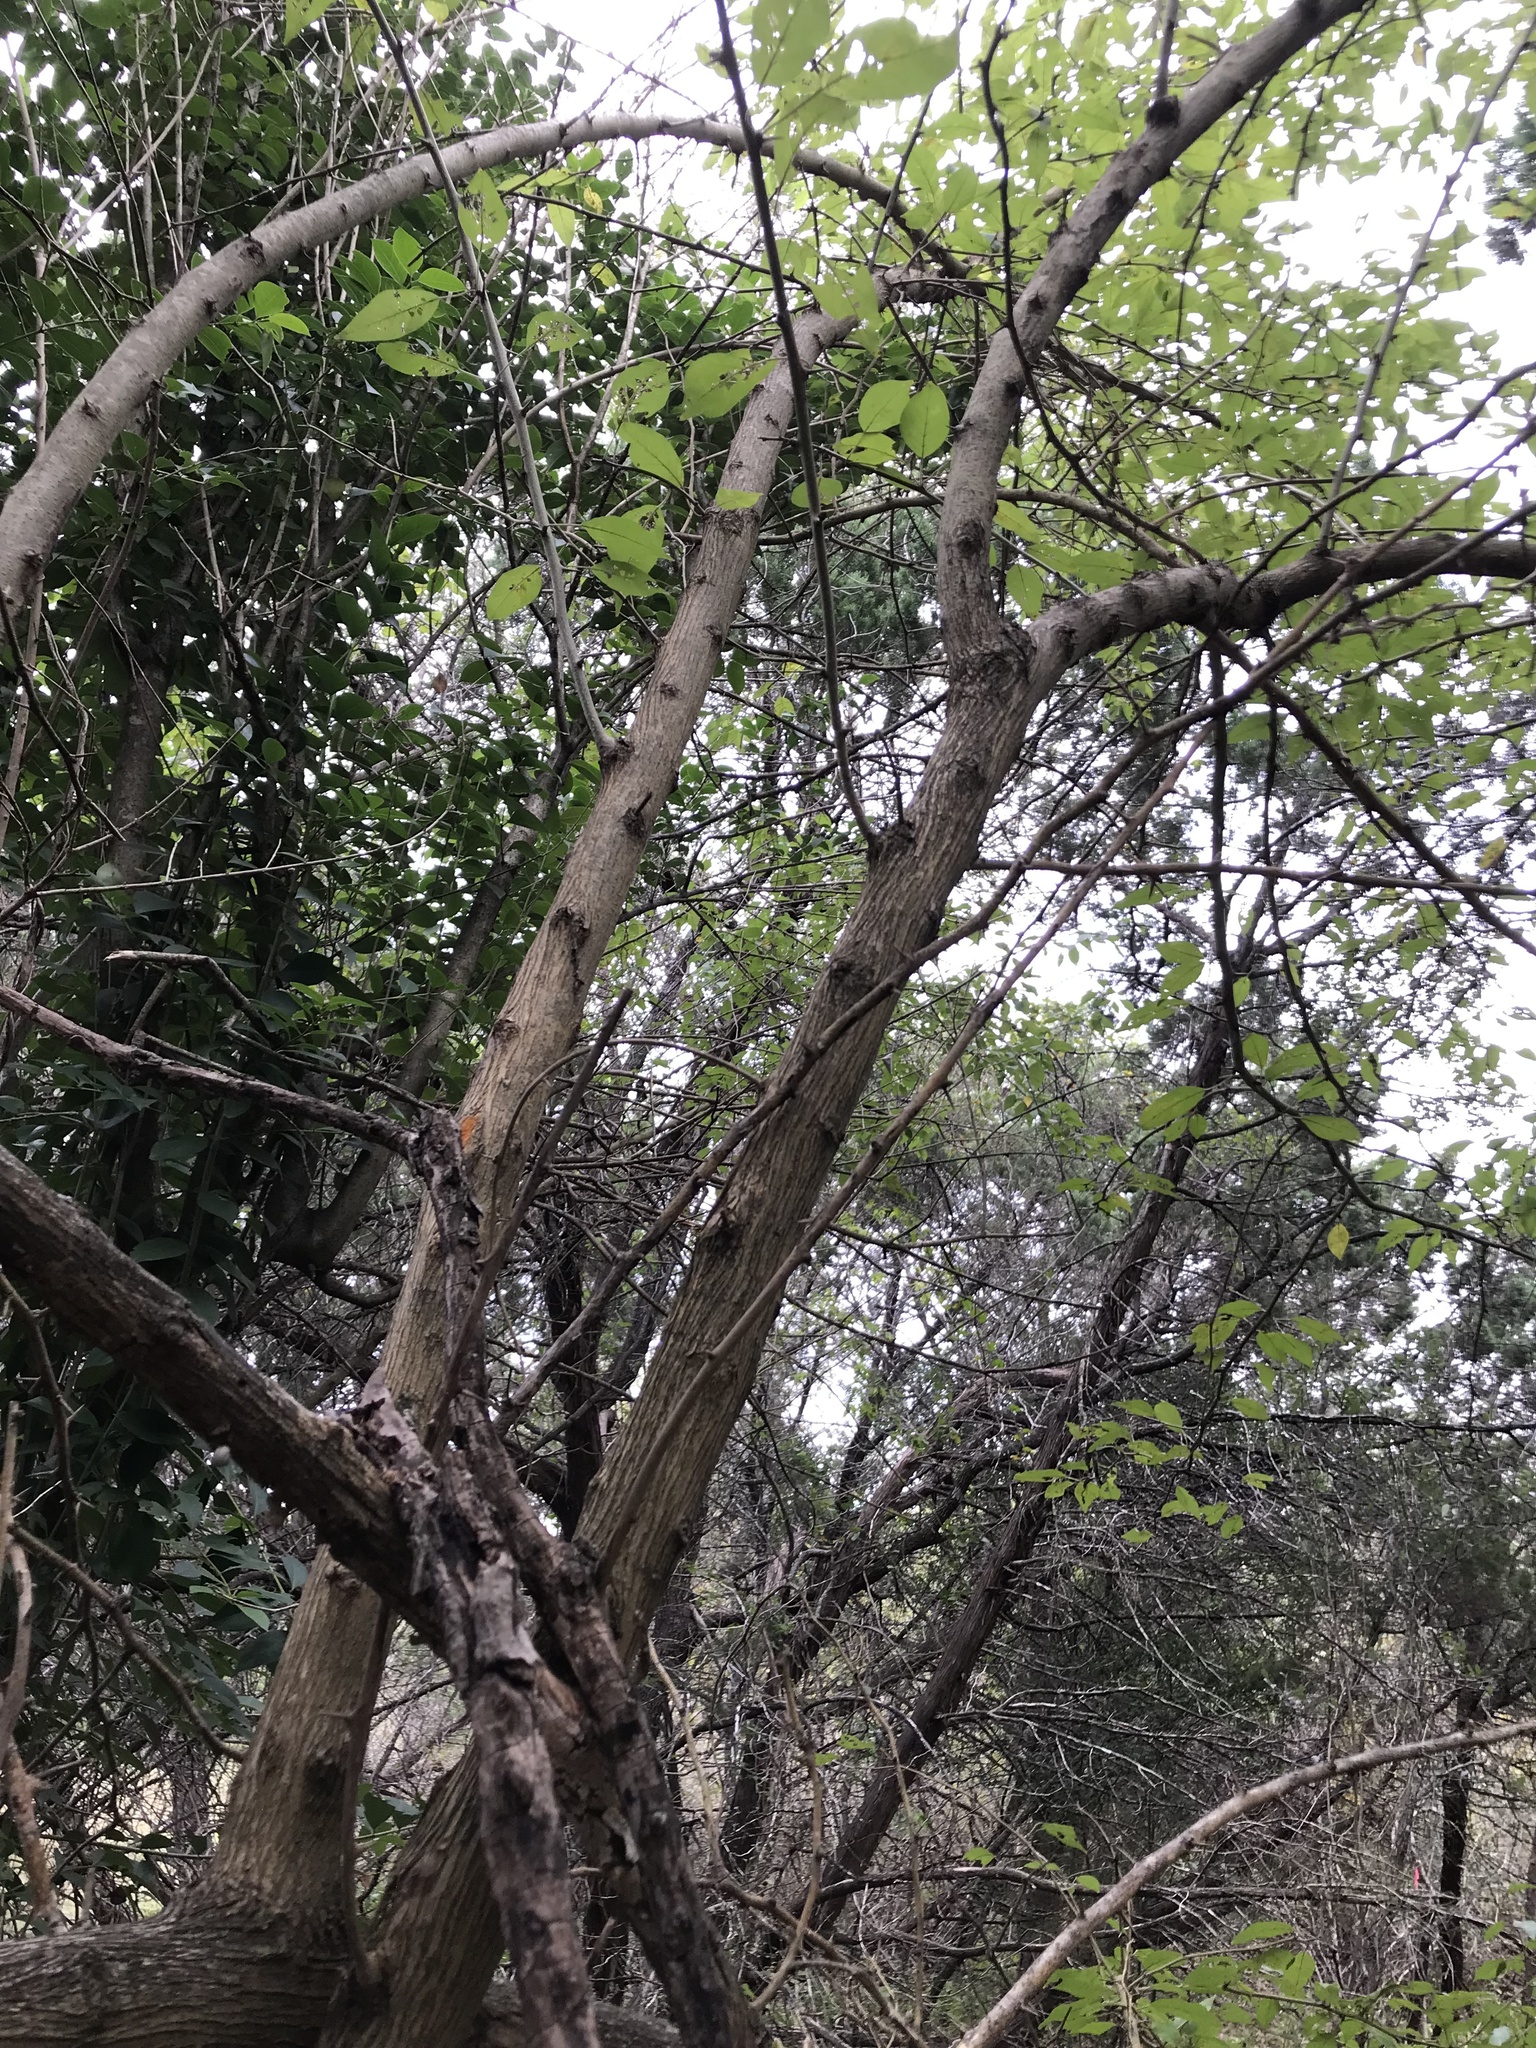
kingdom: Plantae
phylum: Tracheophyta
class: Magnoliopsida
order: Rosales
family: Moraceae
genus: Maclura
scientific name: Maclura pomifera
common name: Osage-orange
